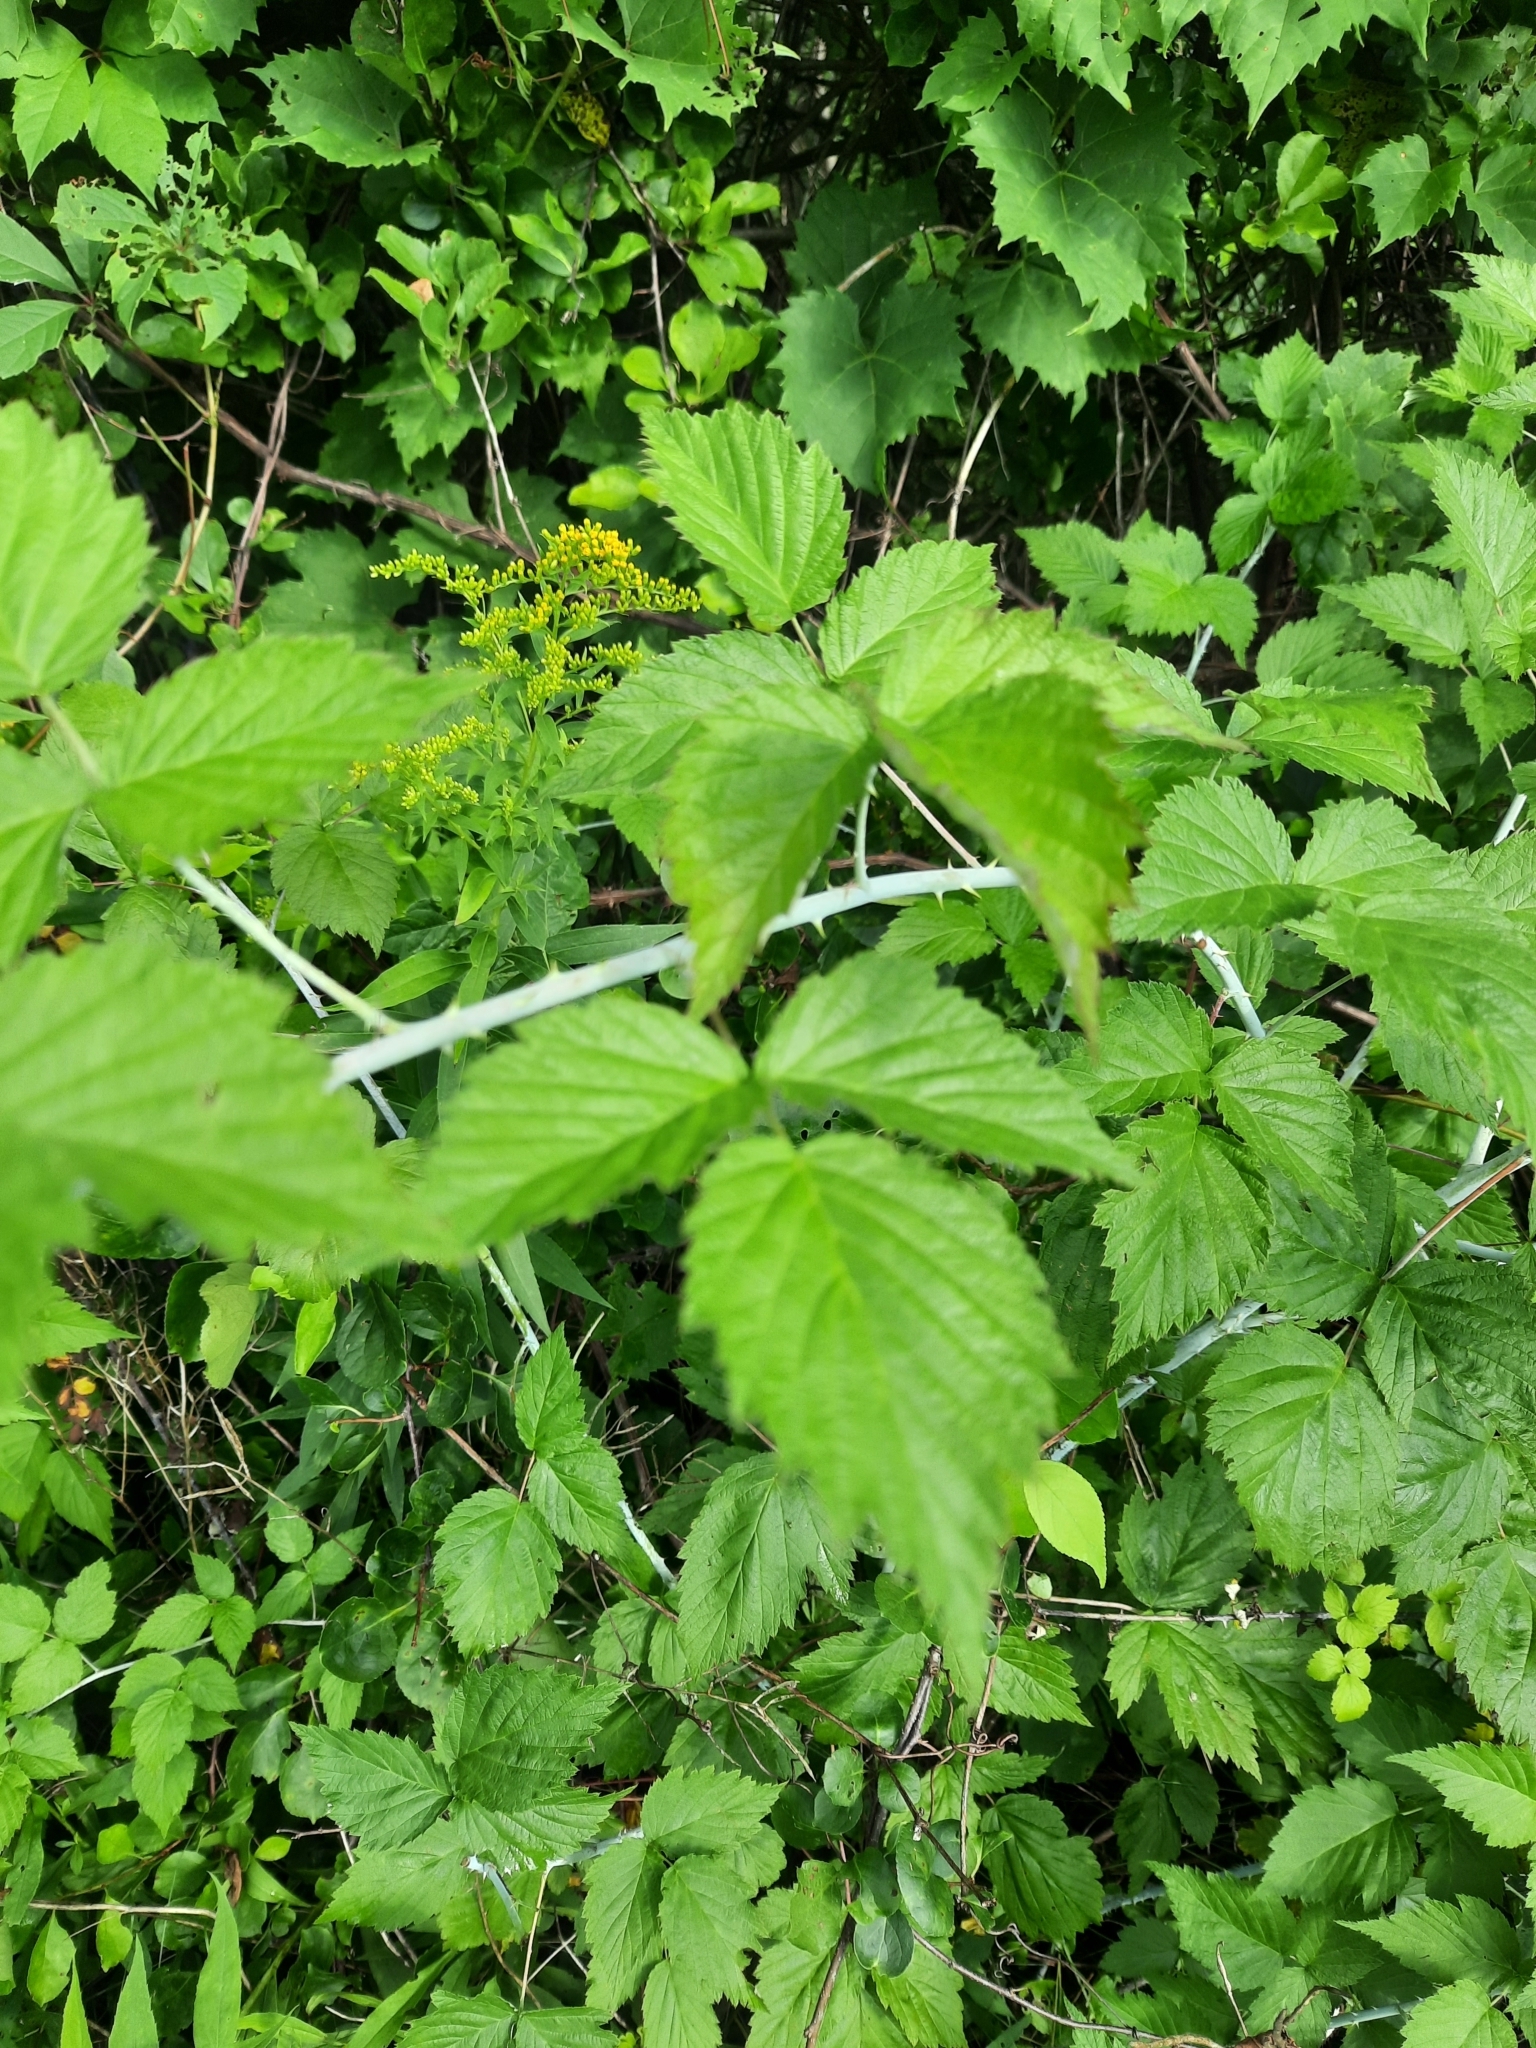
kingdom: Plantae
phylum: Tracheophyta
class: Magnoliopsida
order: Rosales
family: Rosaceae
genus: Rubus
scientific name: Rubus occidentalis
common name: Black raspberry
